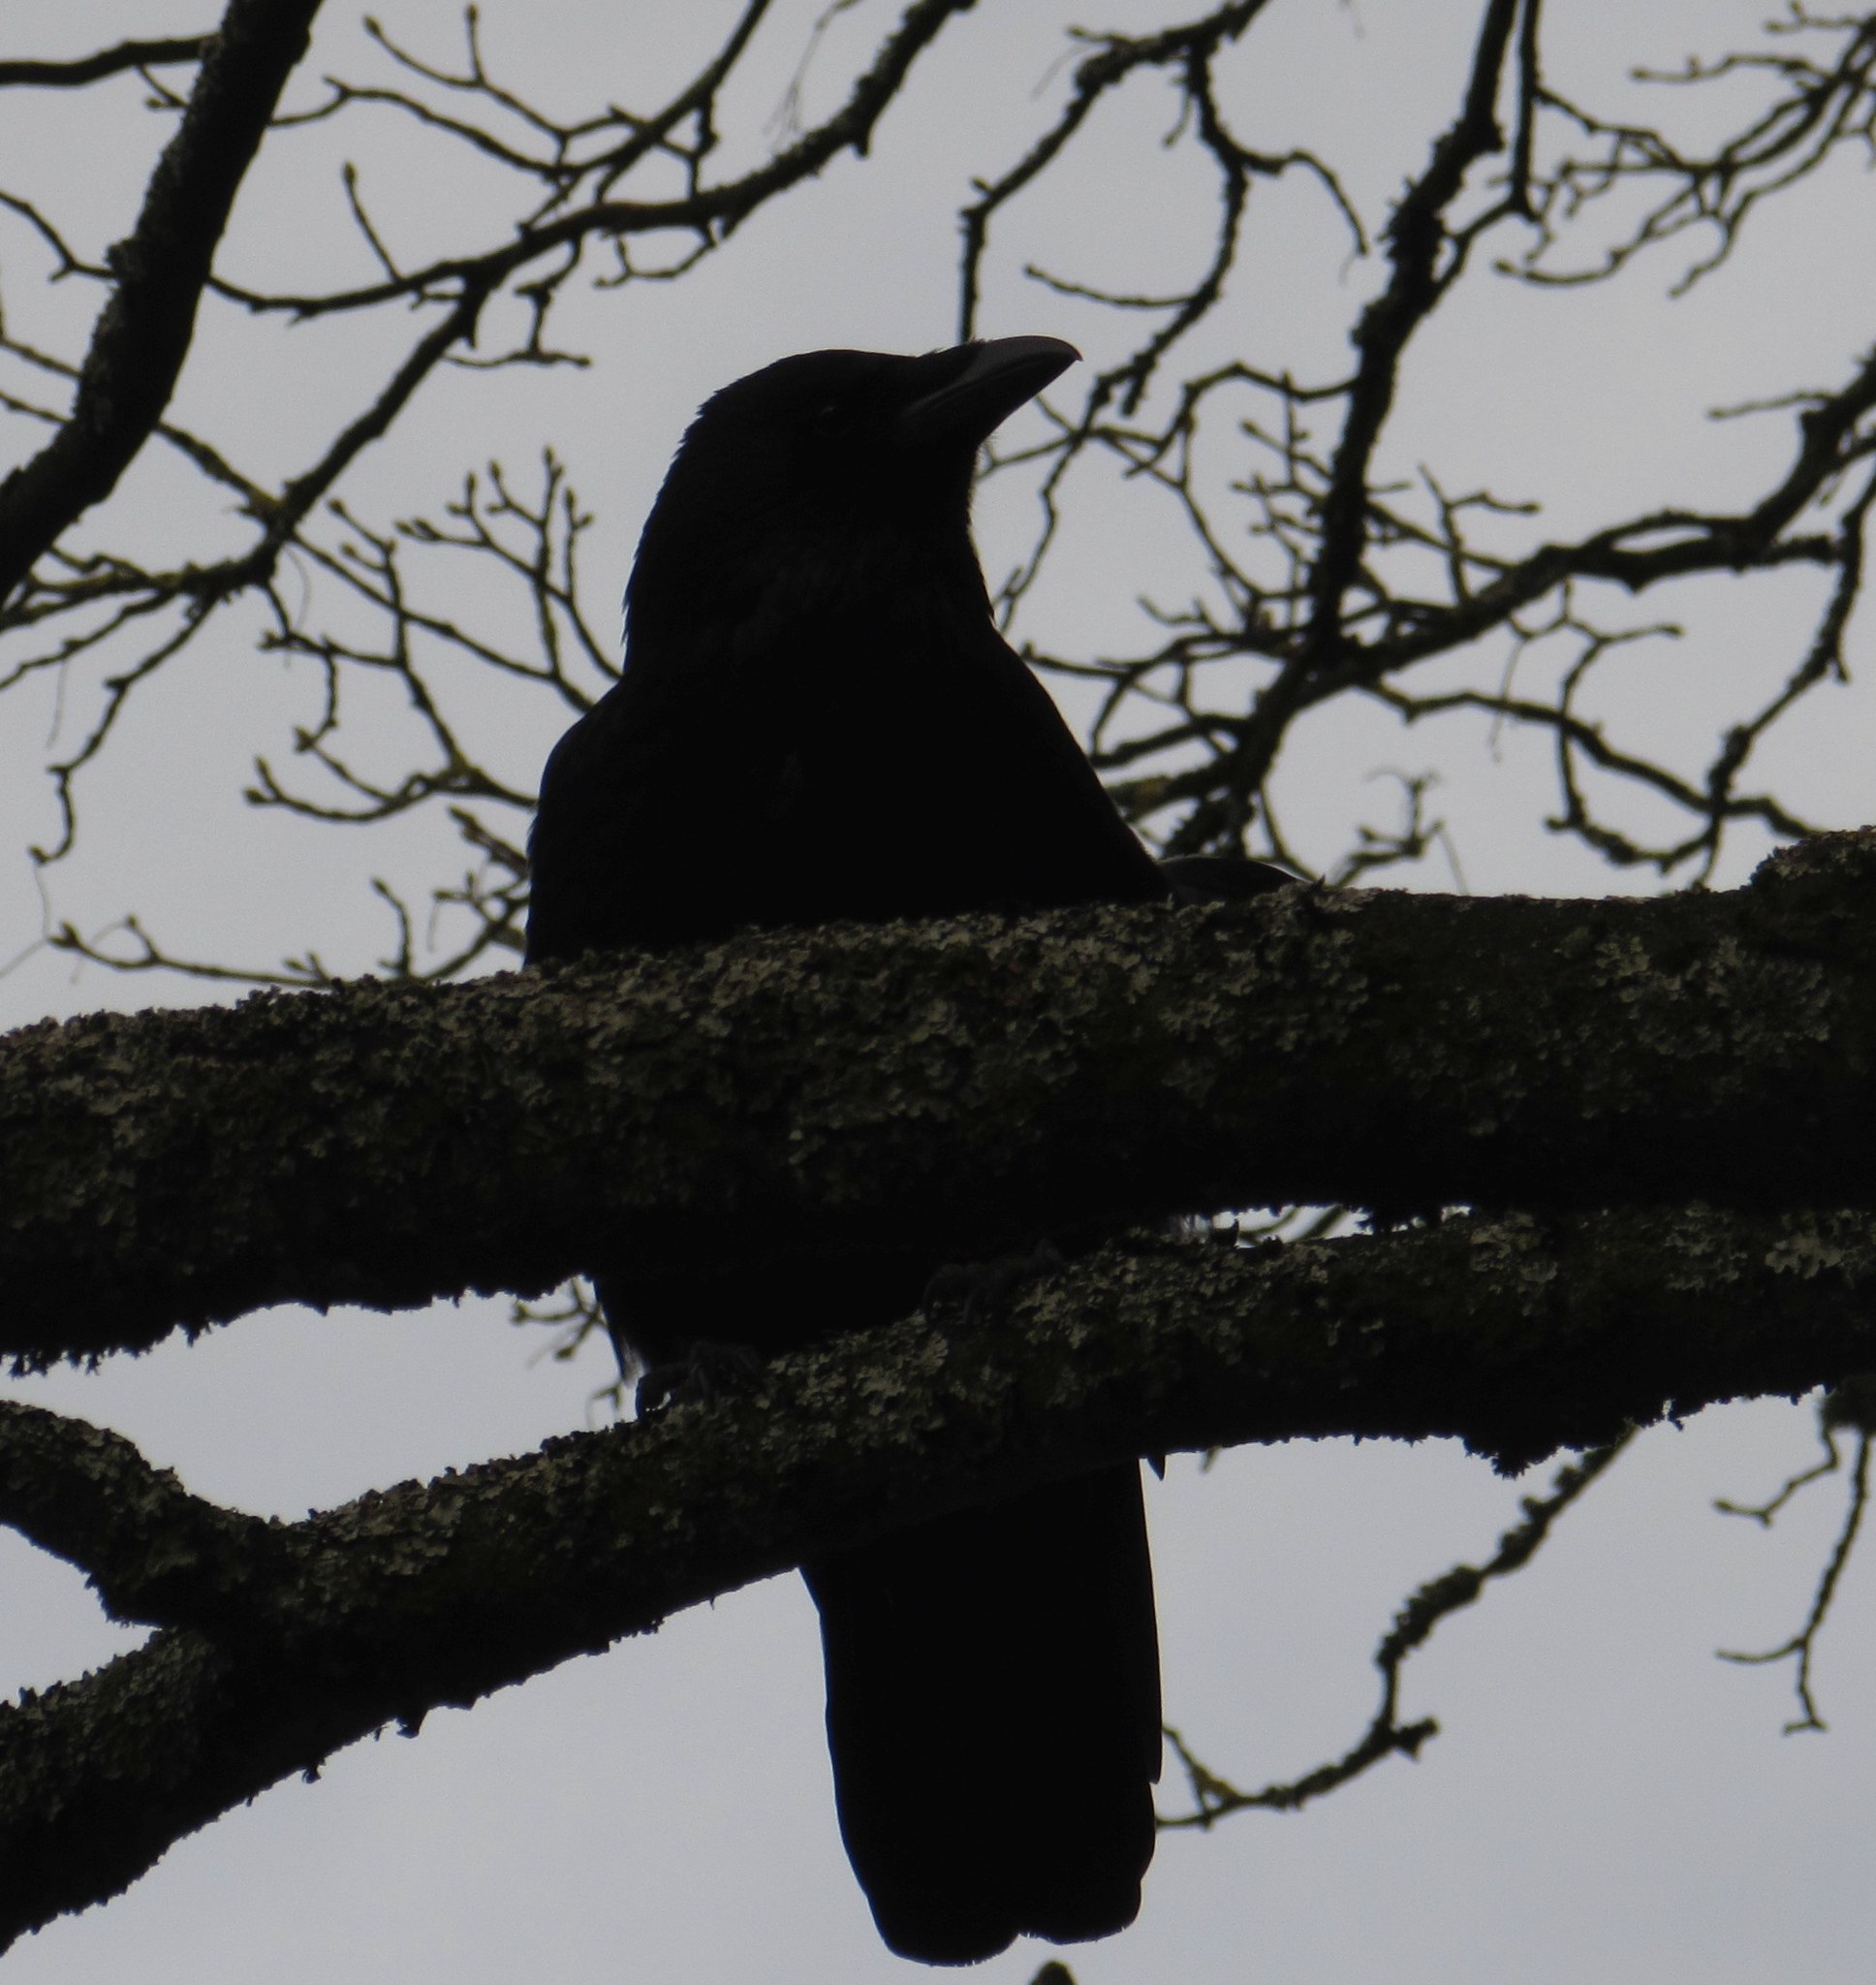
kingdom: Animalia
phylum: Chordata
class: Aves
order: Passeriformes
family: Corvidae
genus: Corvus
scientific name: Corvus corone
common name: Carrion crow
